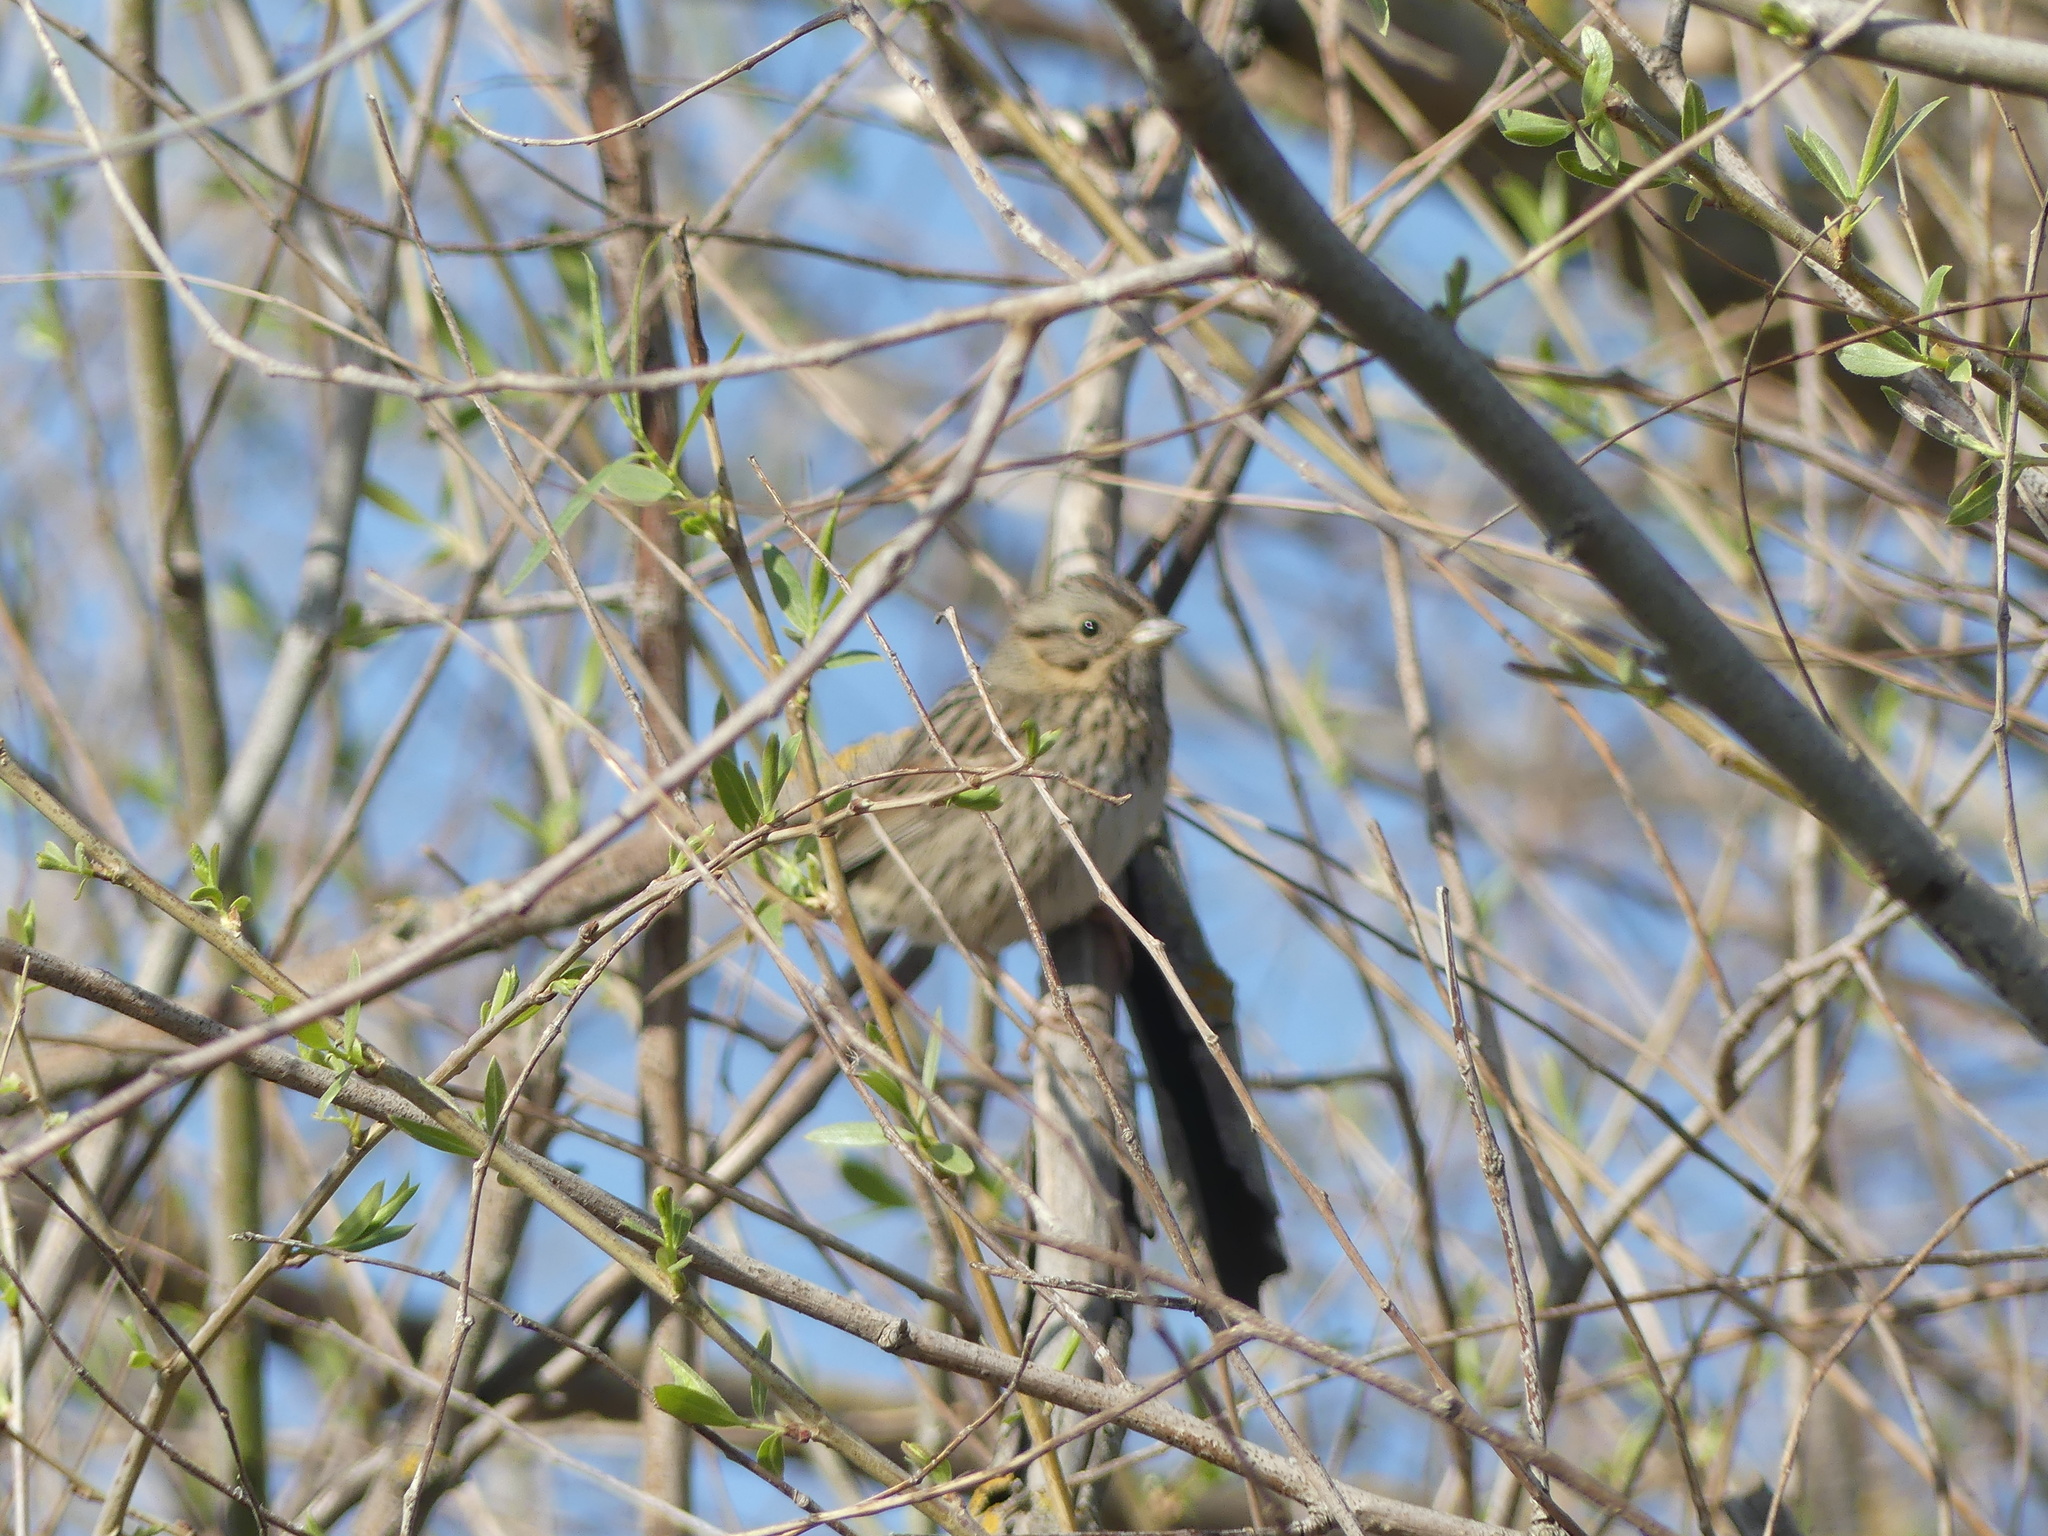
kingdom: Animalia
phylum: Chordata
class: Aves
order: Passeriformes
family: Passerellidae
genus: Melospiza
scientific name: Melospiza lincolnii
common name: Lincoln's sparrow
